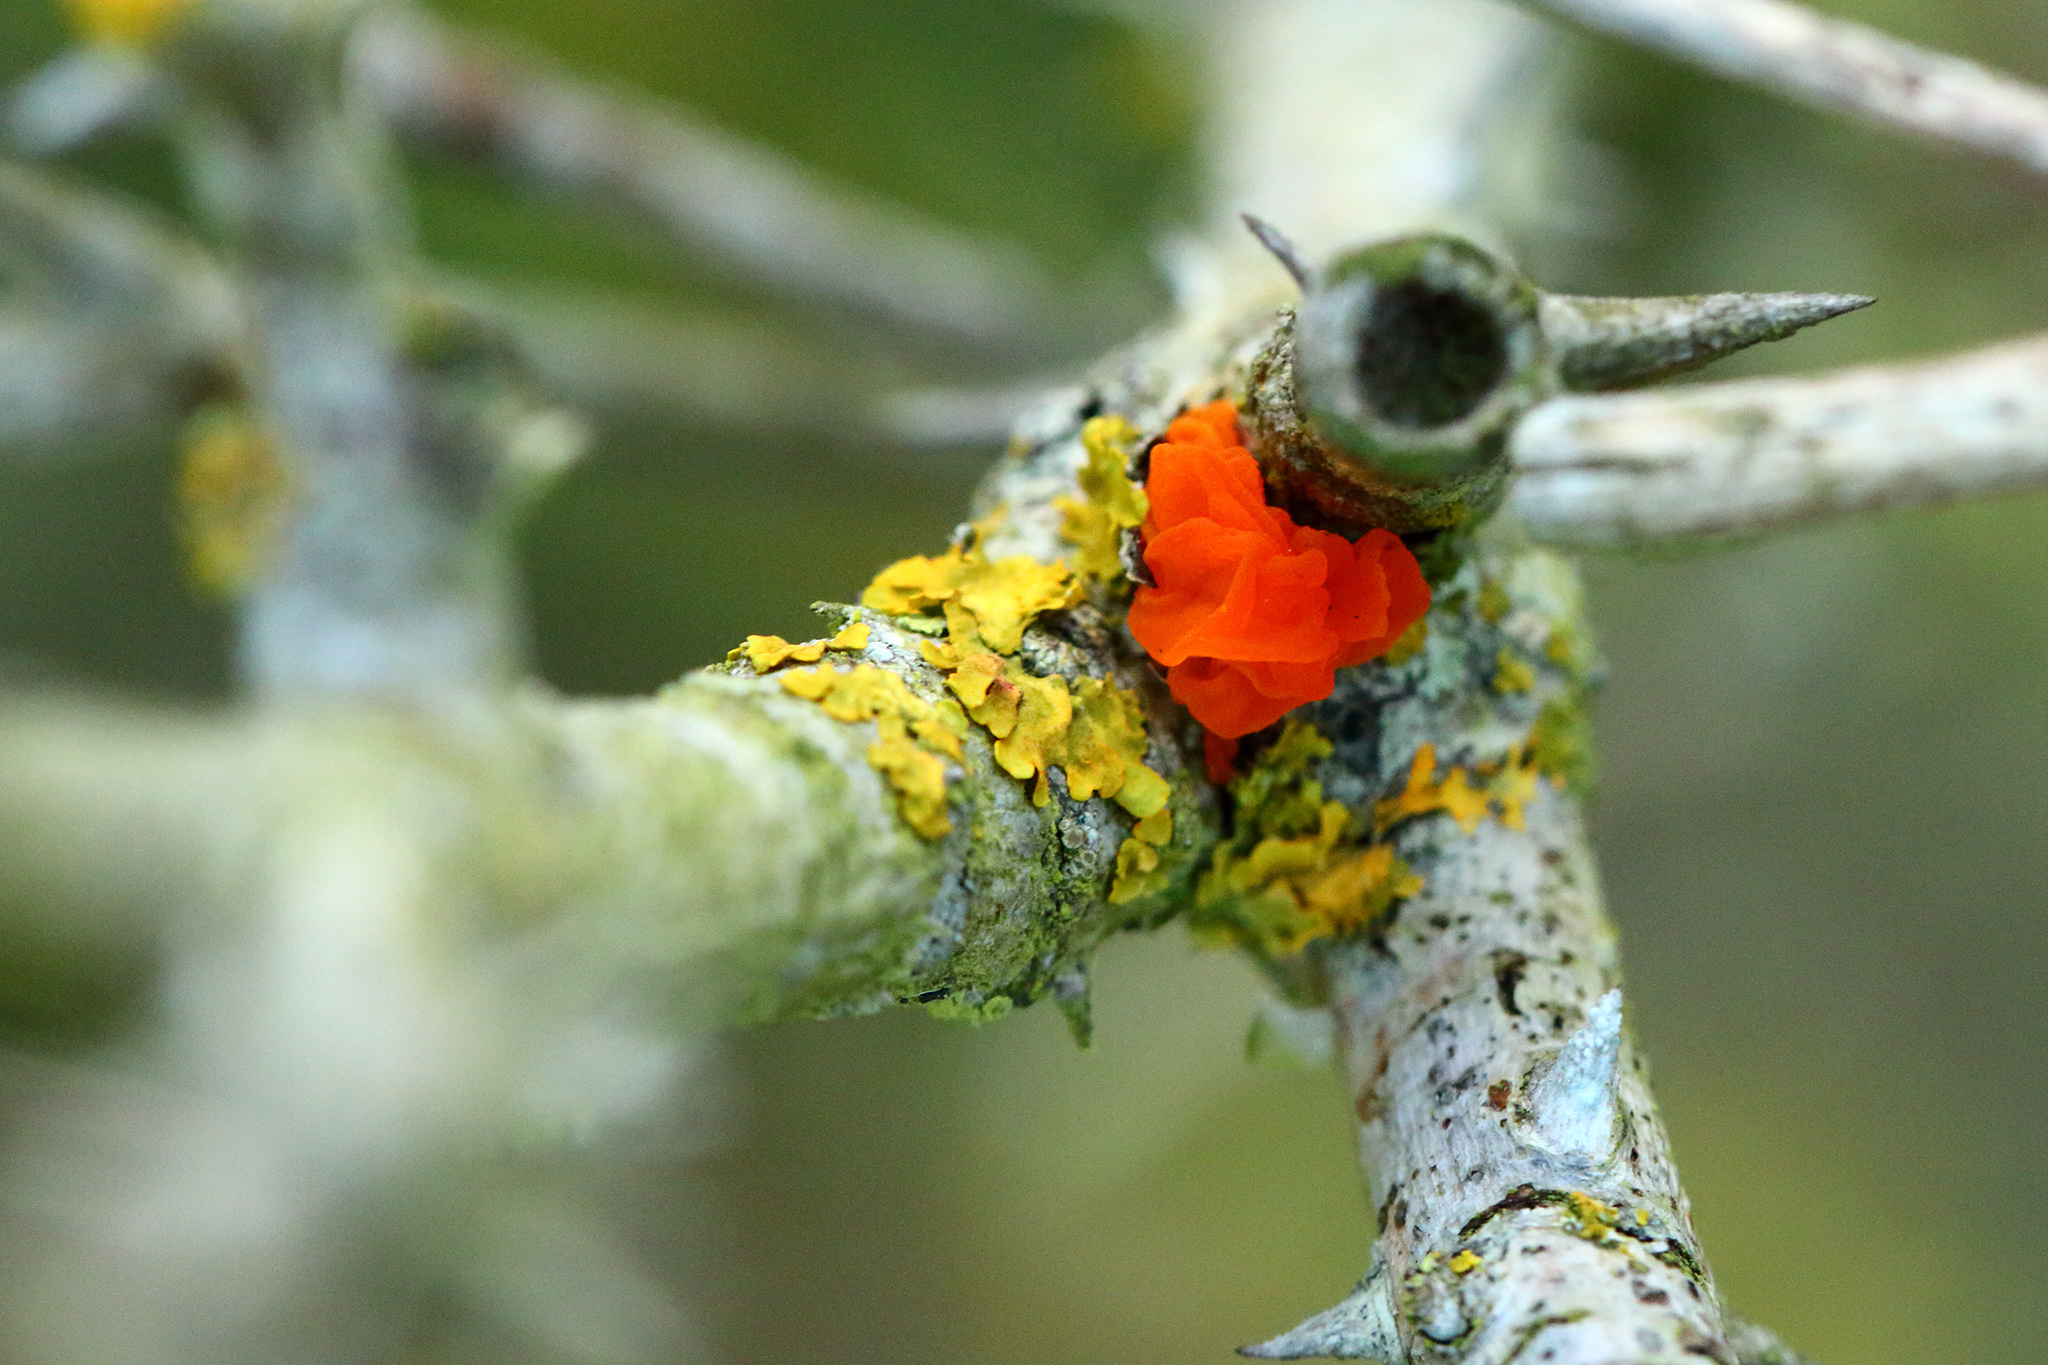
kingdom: Fungi
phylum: Basidiomycota
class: Tremellomycetes
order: Tremellales
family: Tremellaceae
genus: Tremella
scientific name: Tremella mesenterica
